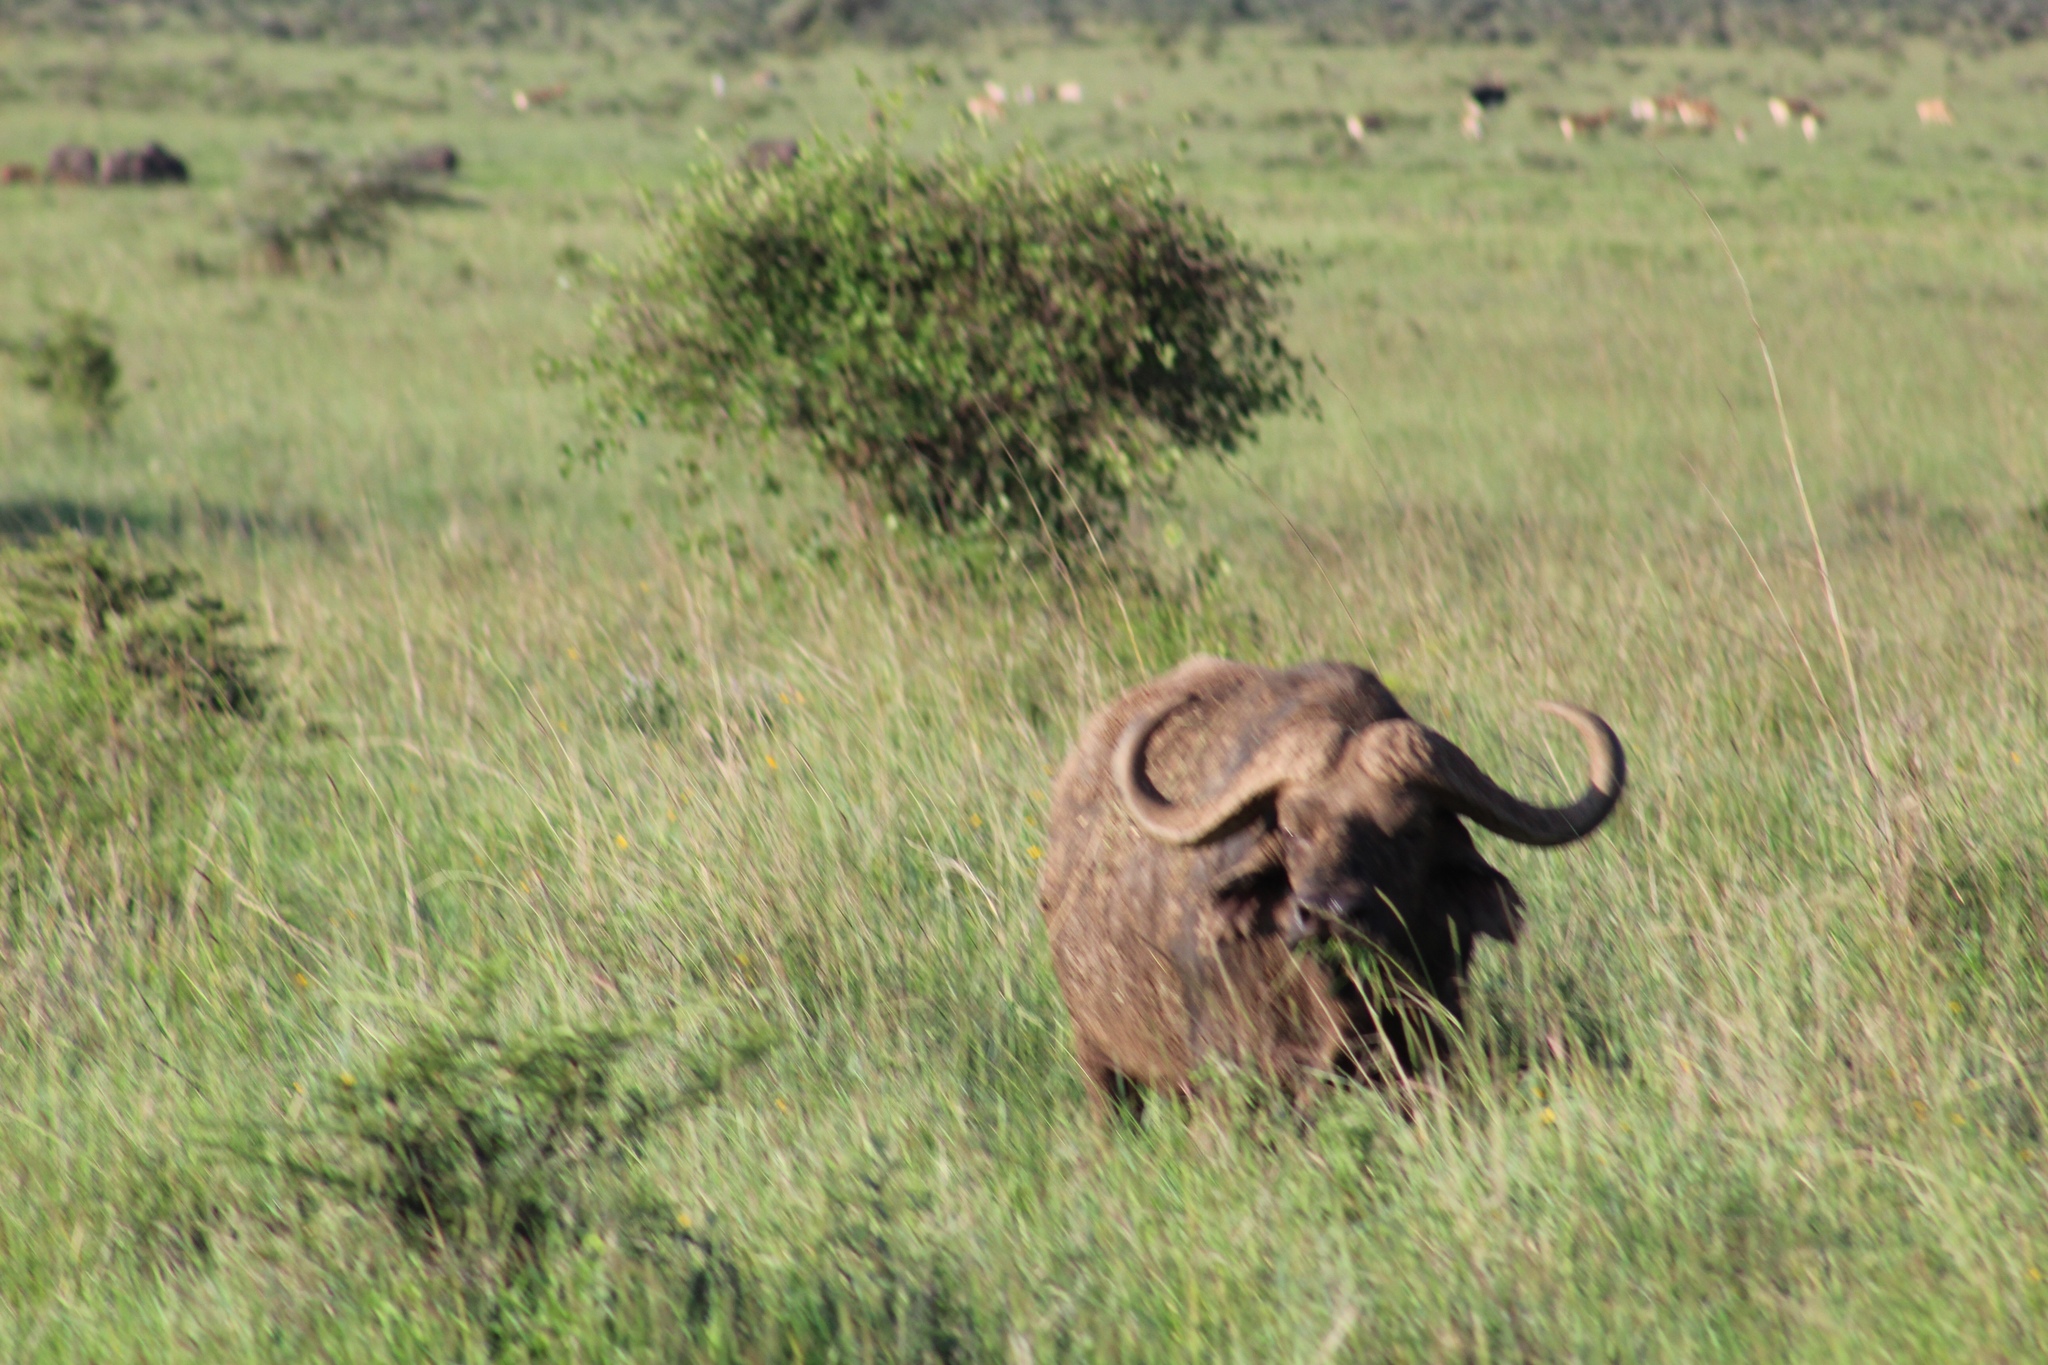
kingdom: Animalia
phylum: Chordata
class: Mammalia
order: Artiodactyla
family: Bovidae
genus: Syncerus
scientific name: Syncerus caffer
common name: African buffalo
